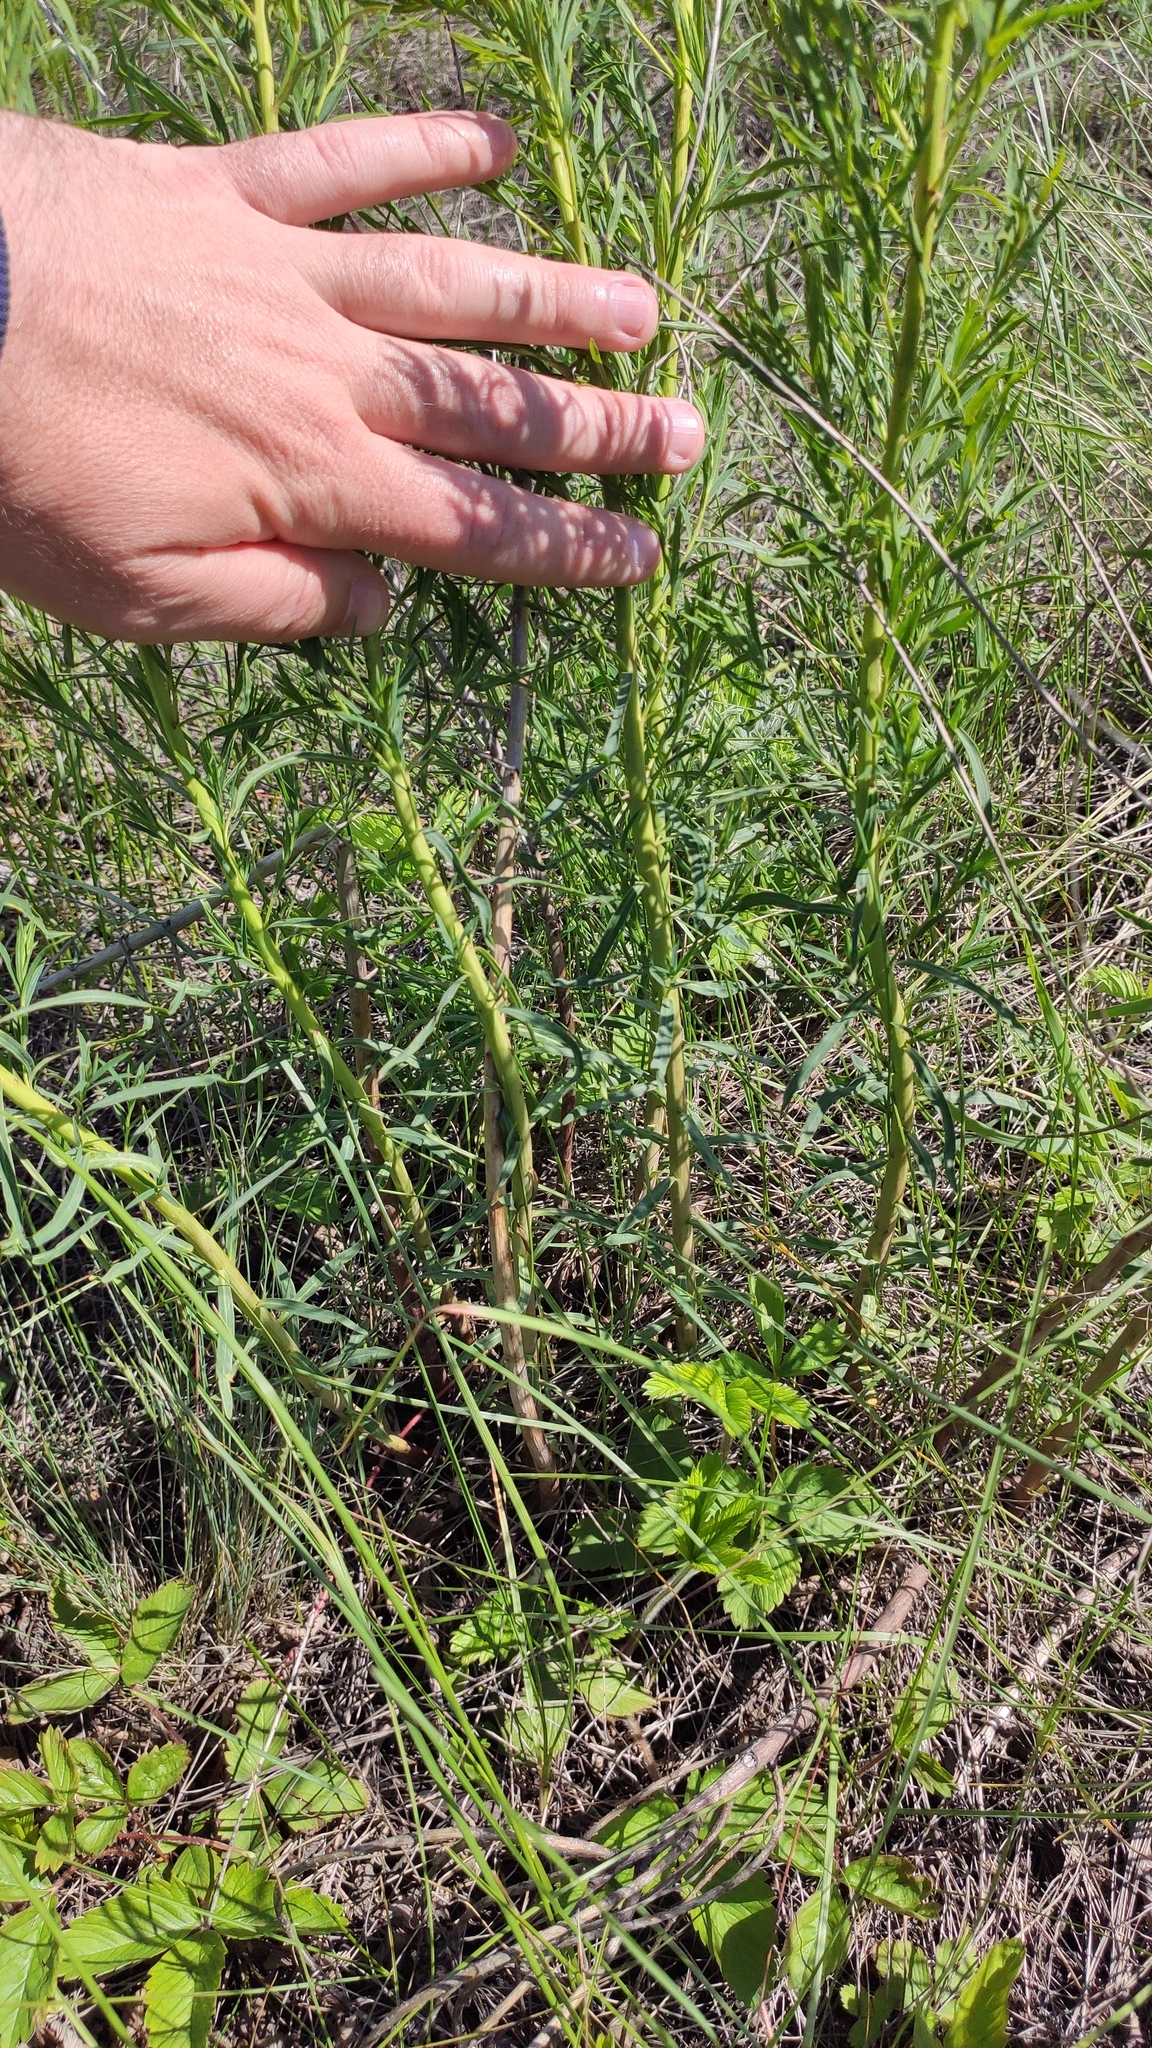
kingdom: Plantae
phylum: Tracheophyta
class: Magnoliopsida
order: Asterales
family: Asteraceae
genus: Artemisia
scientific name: Artemisia dracunculus
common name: Tarragon
